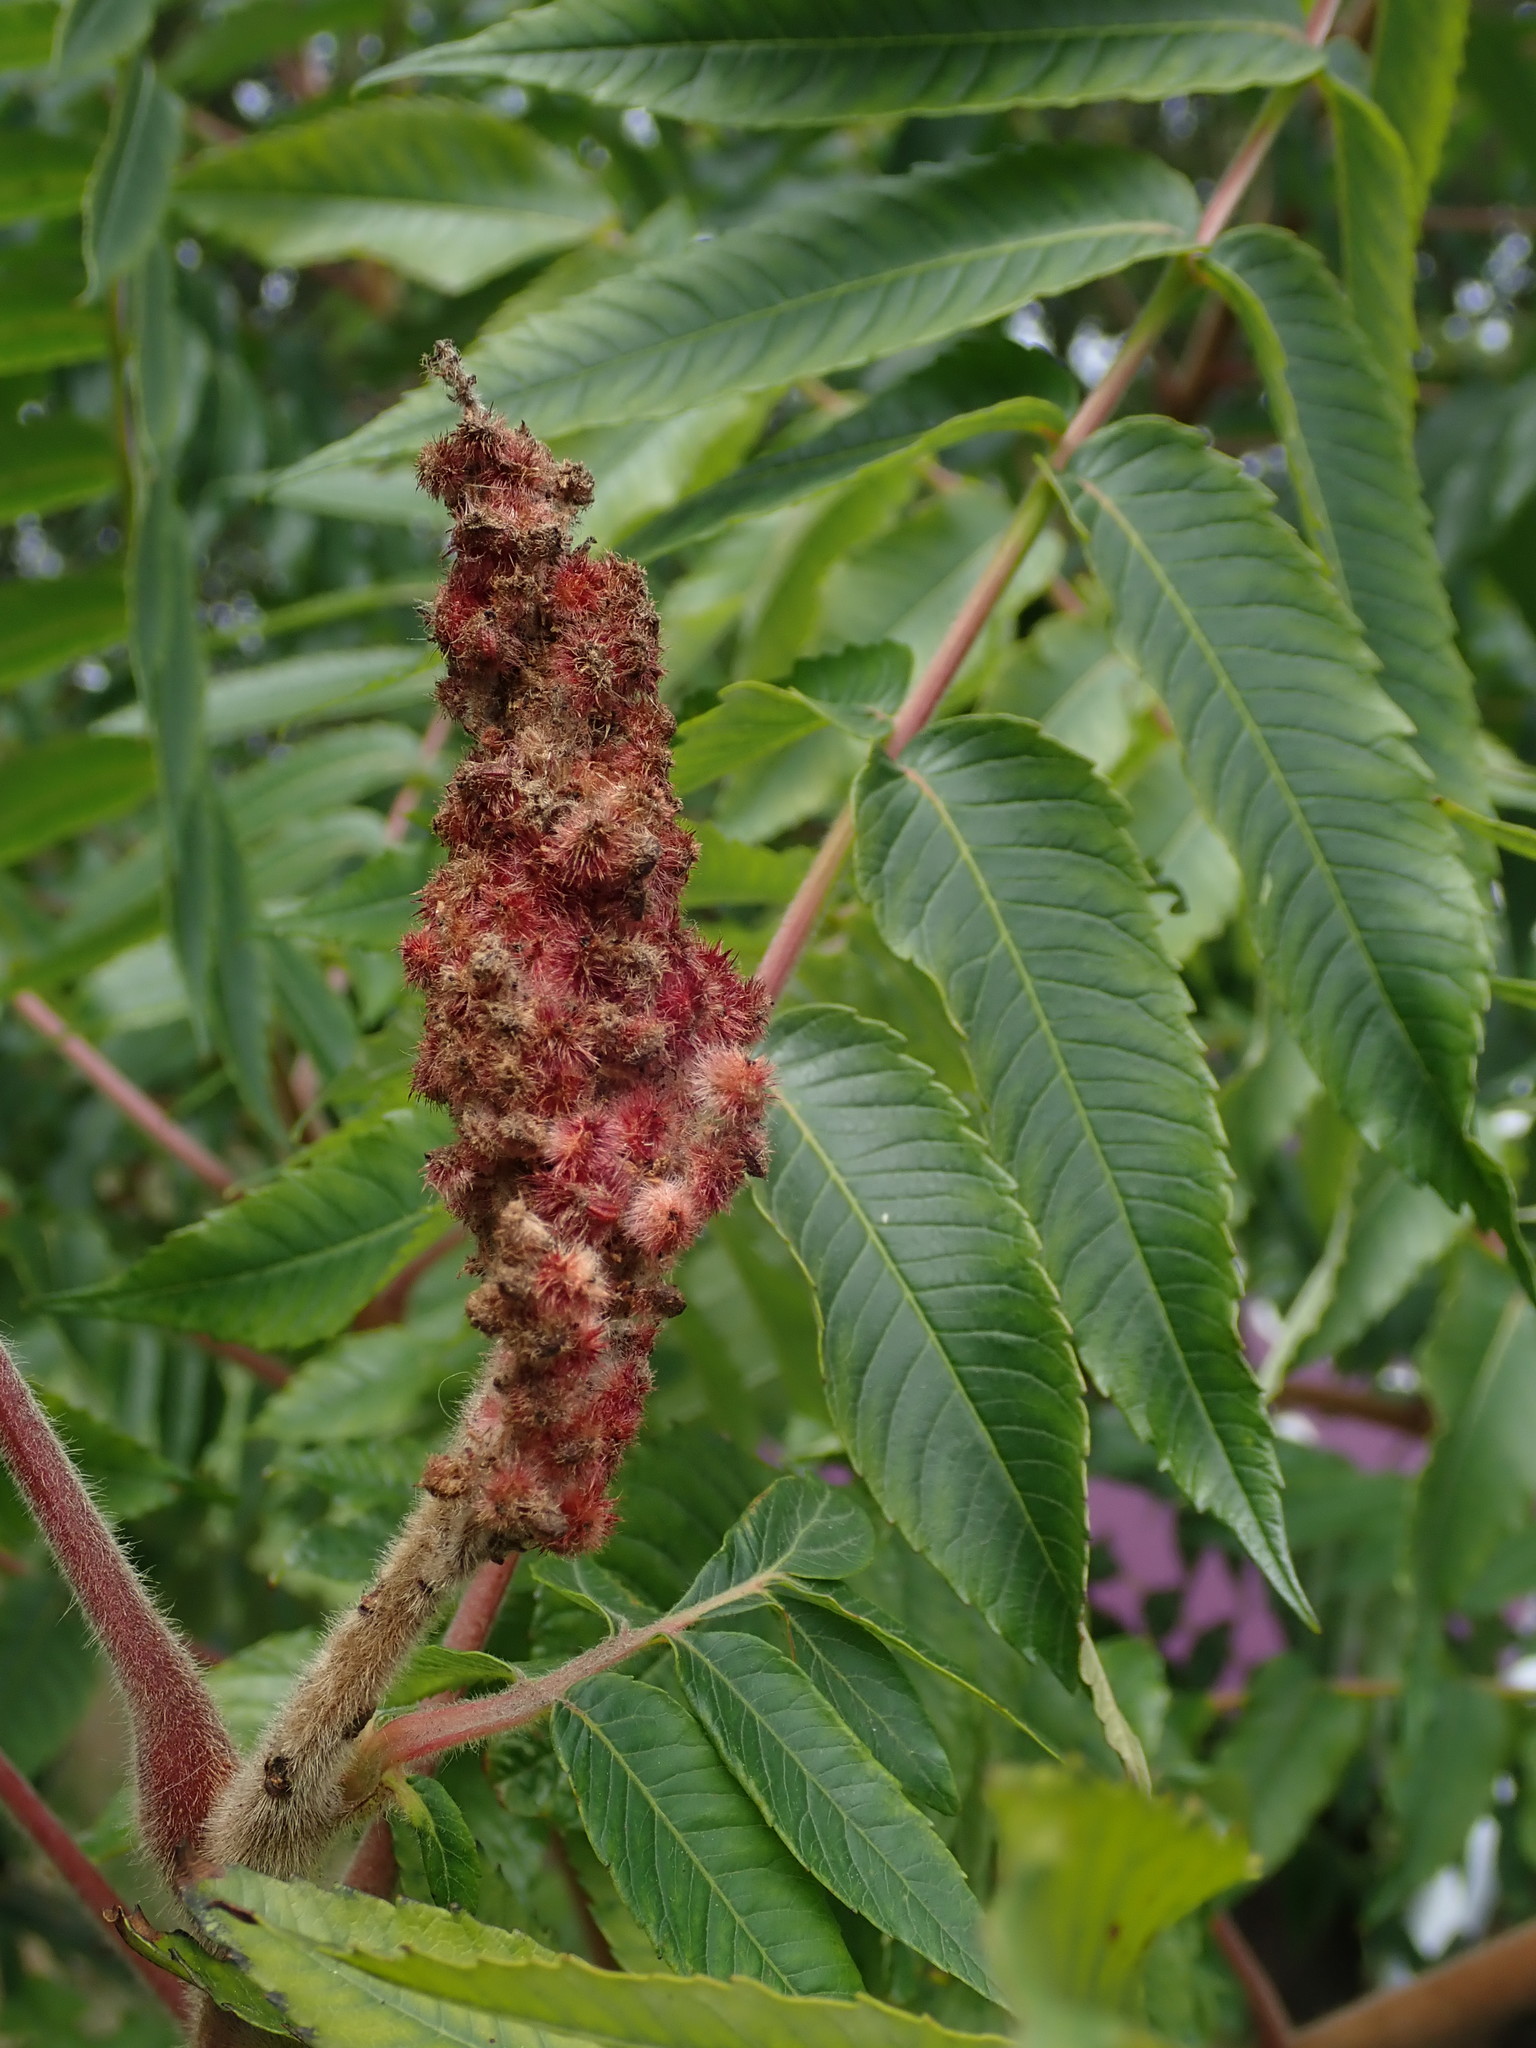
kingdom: Plantae
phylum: Tracheophyta
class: Magnoliopsida
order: Sapindales
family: Anacardiaceae
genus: Rhus
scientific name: Rhus typhina
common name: Staghorn sumac
